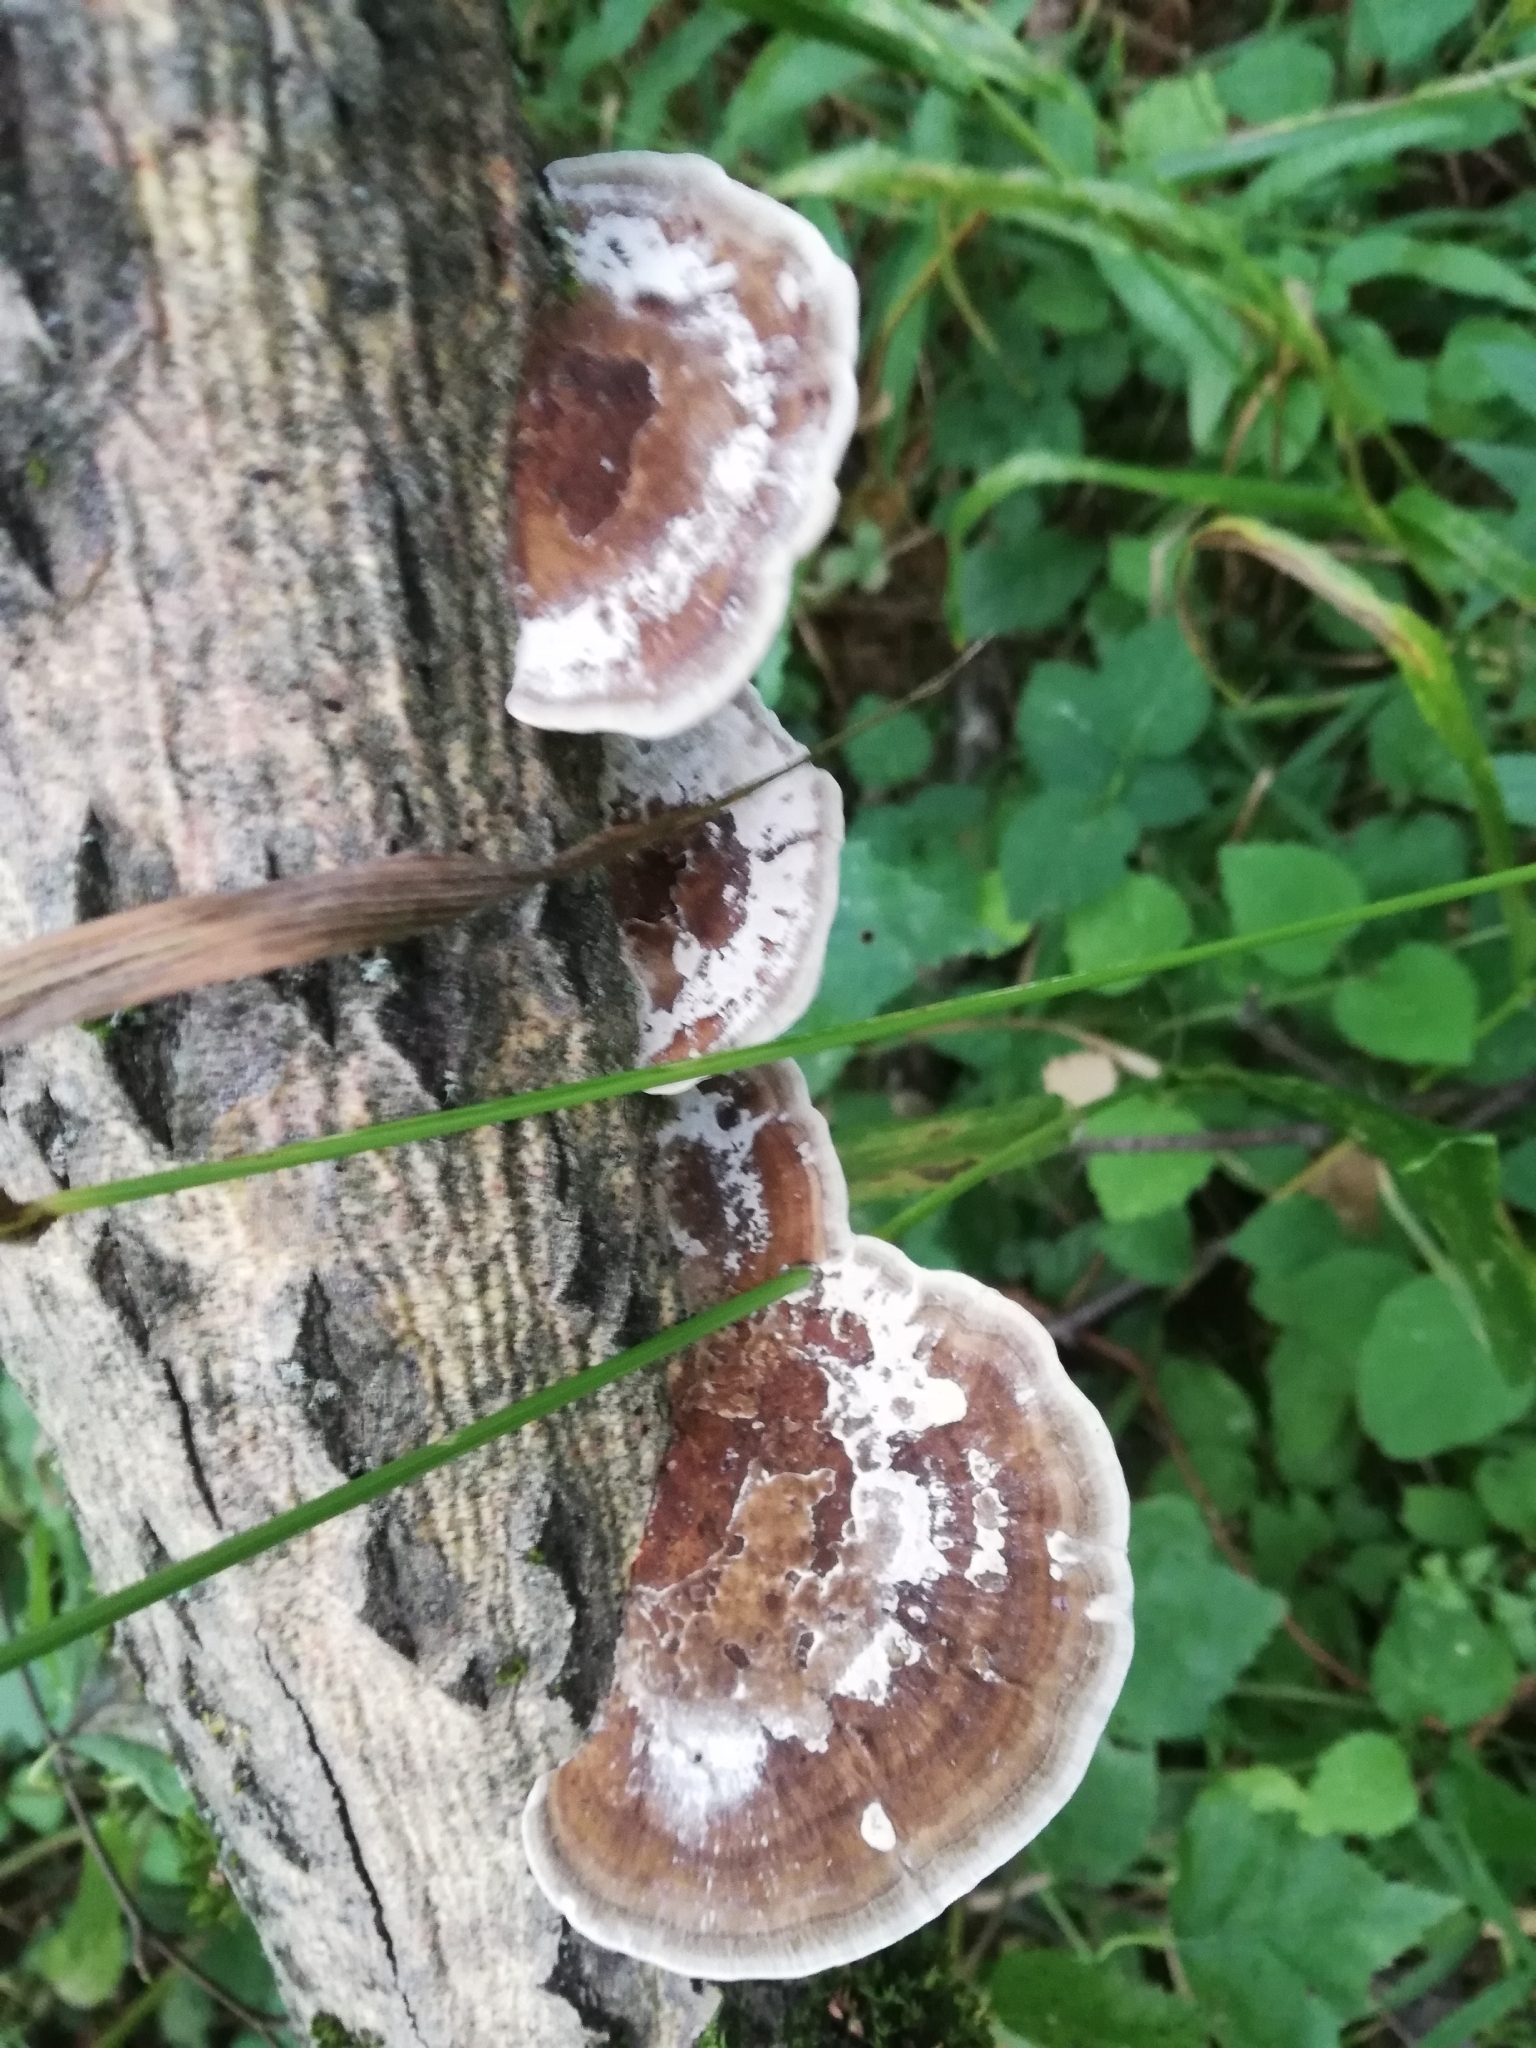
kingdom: Fungi
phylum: Basidiomycota
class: Agaricomycetes
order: Polyporales
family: Polyporaceae
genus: Daedaleopsis
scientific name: Daedaleopsis confragosa
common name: Blushing bracket
